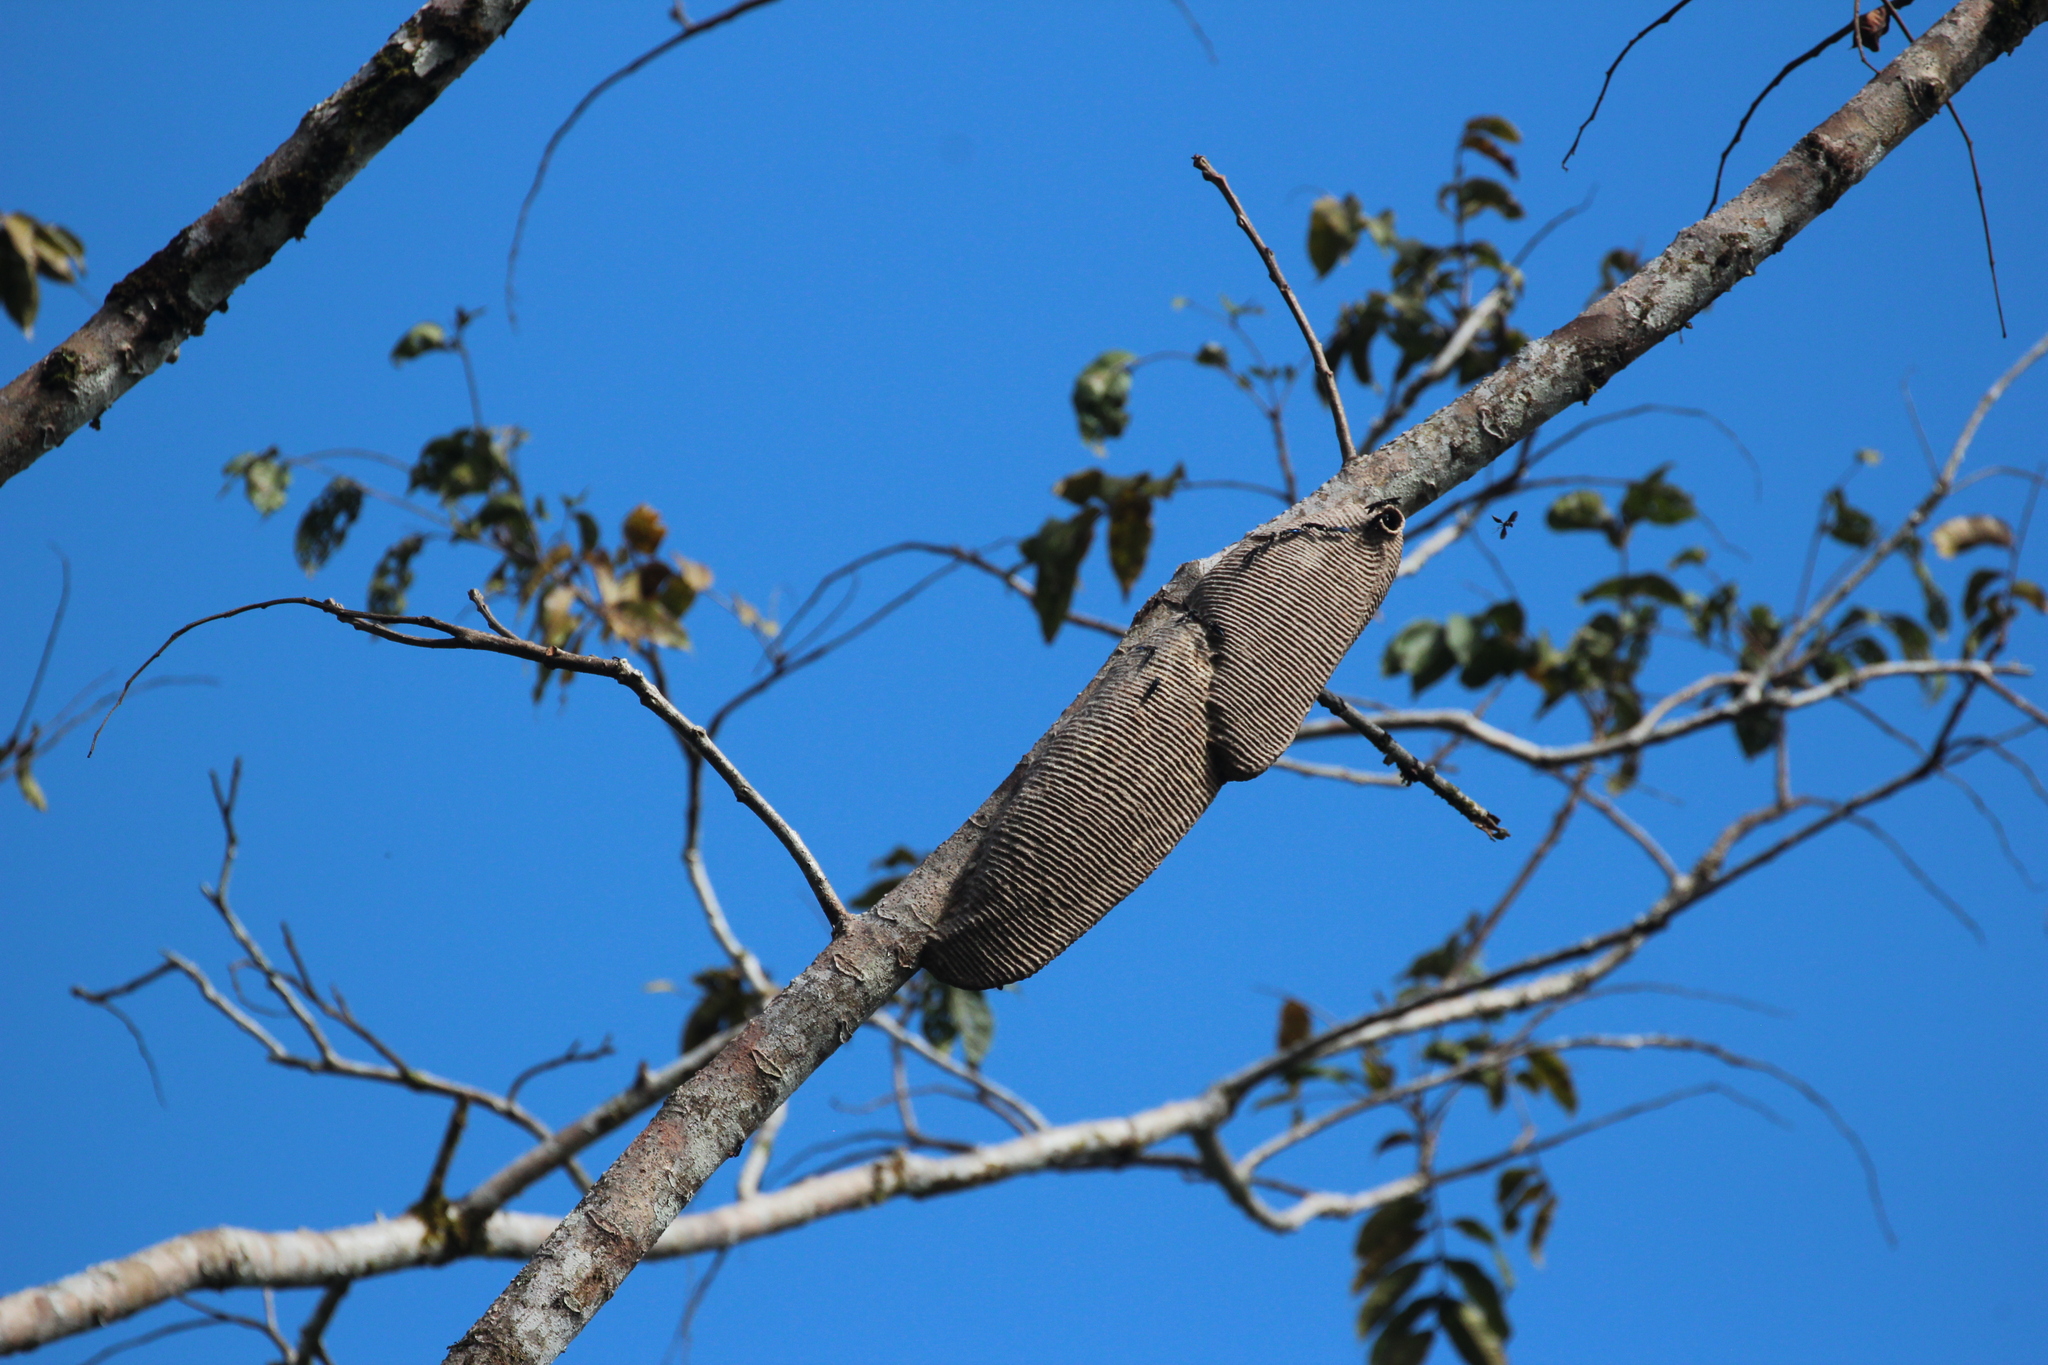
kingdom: Animalia
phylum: Arthropoda
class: Insecta
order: Hymenoptera
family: Vespidae
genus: Synoeca
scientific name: Synoeca septentrionalis
